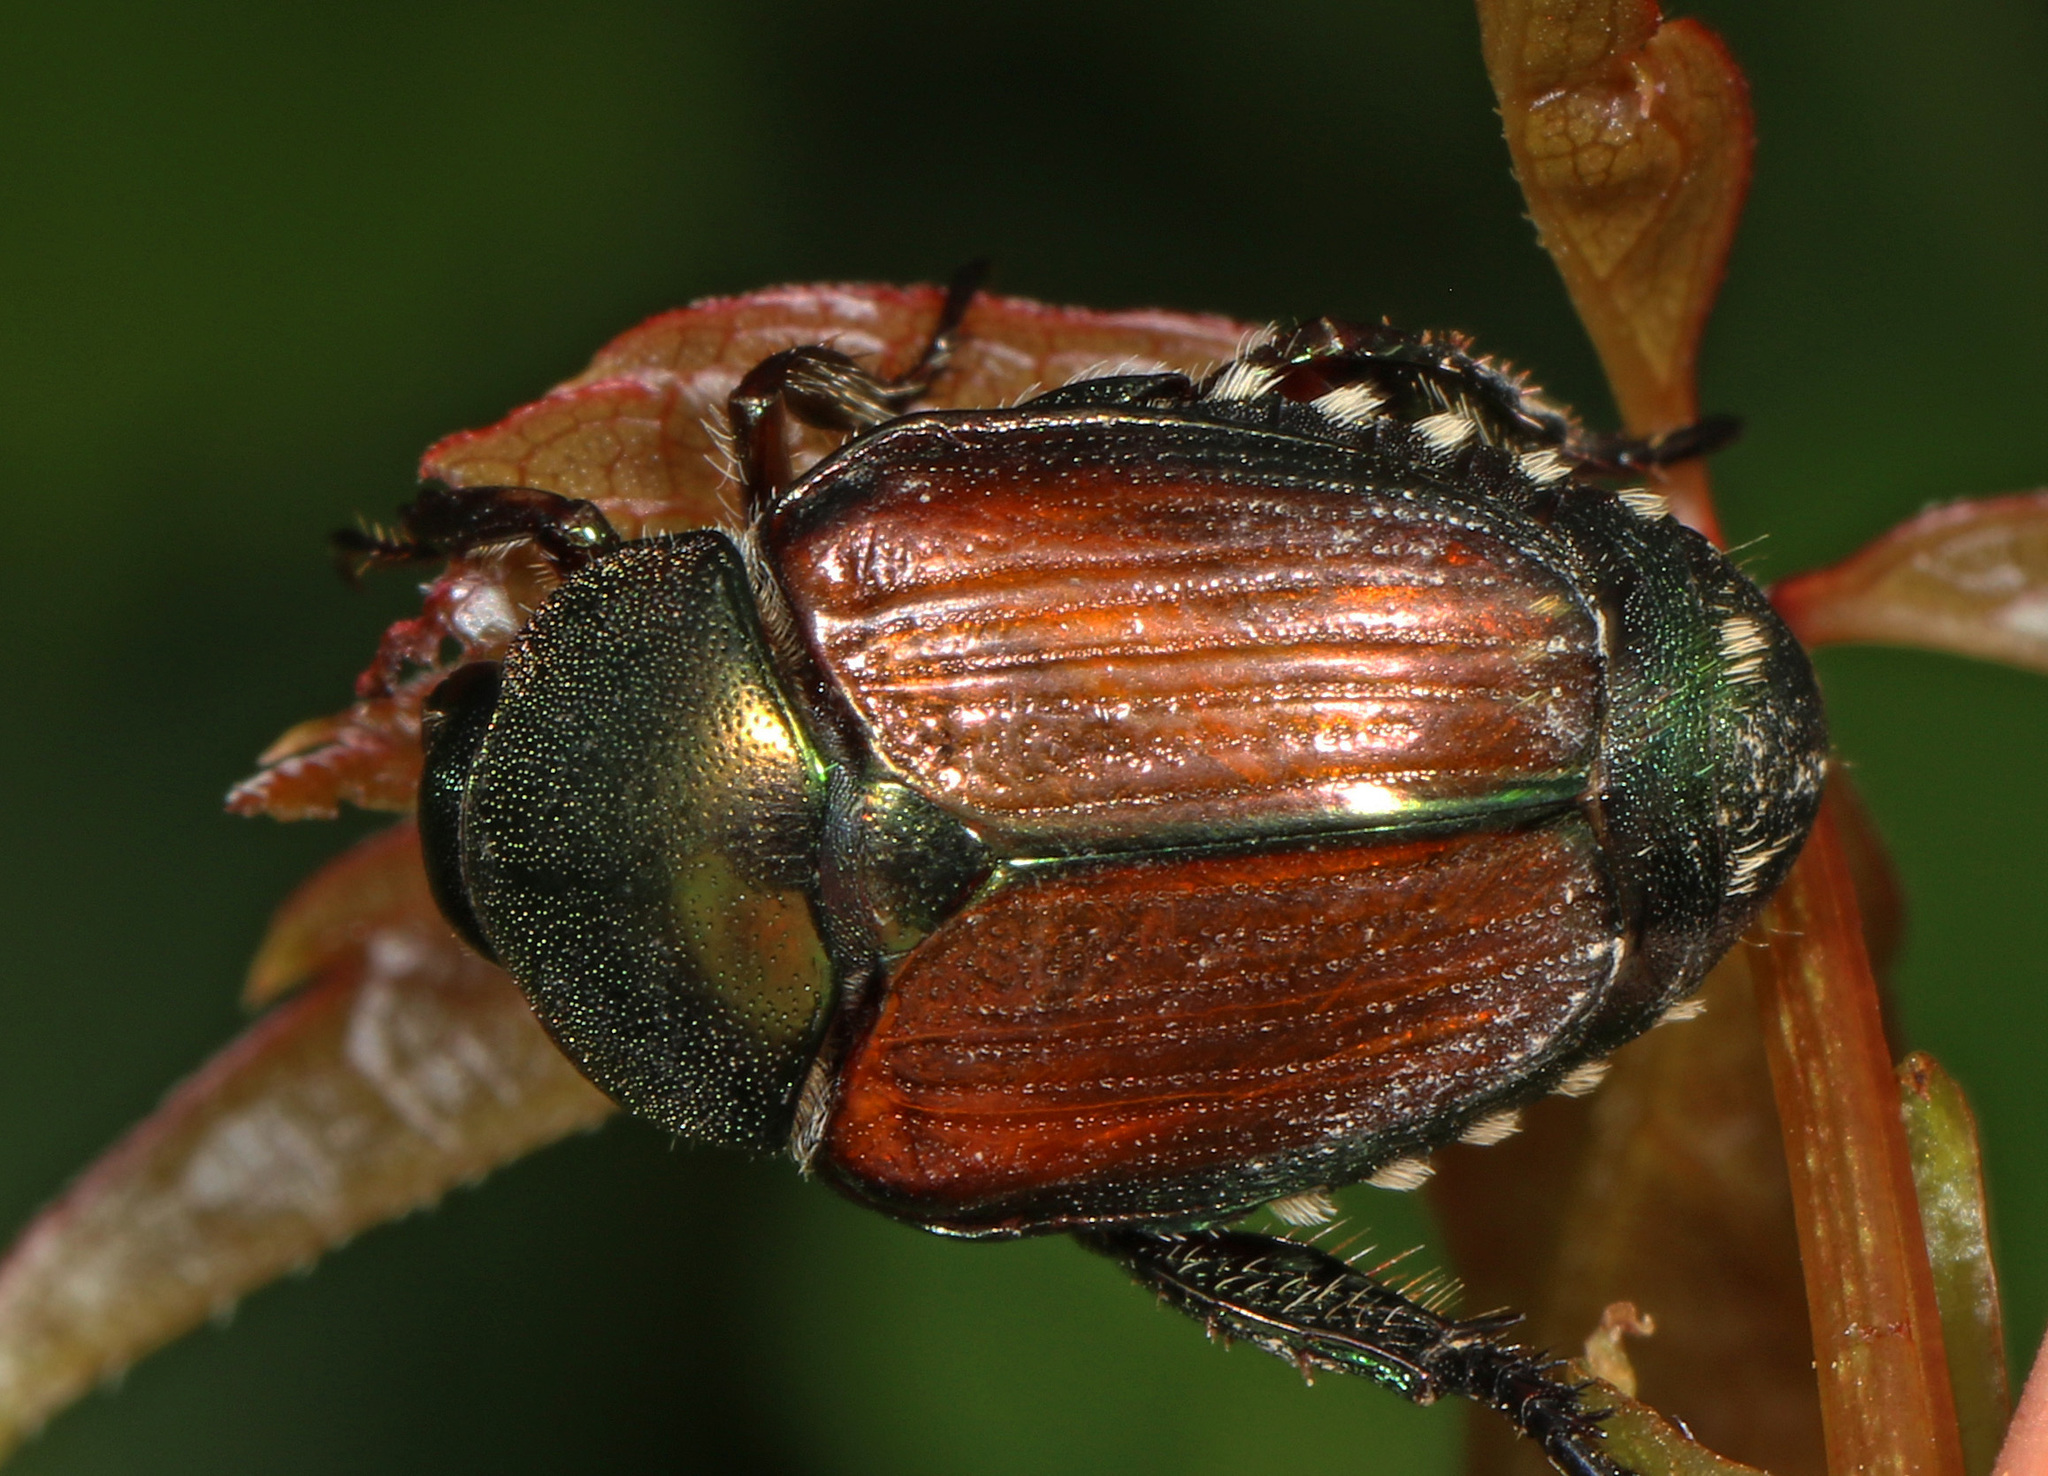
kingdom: Animalia
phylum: Arthropoda
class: Insecta
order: Coleoptera
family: Scarabaeidae
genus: Popillia
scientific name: Popillia japonica
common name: Japanese beetle
